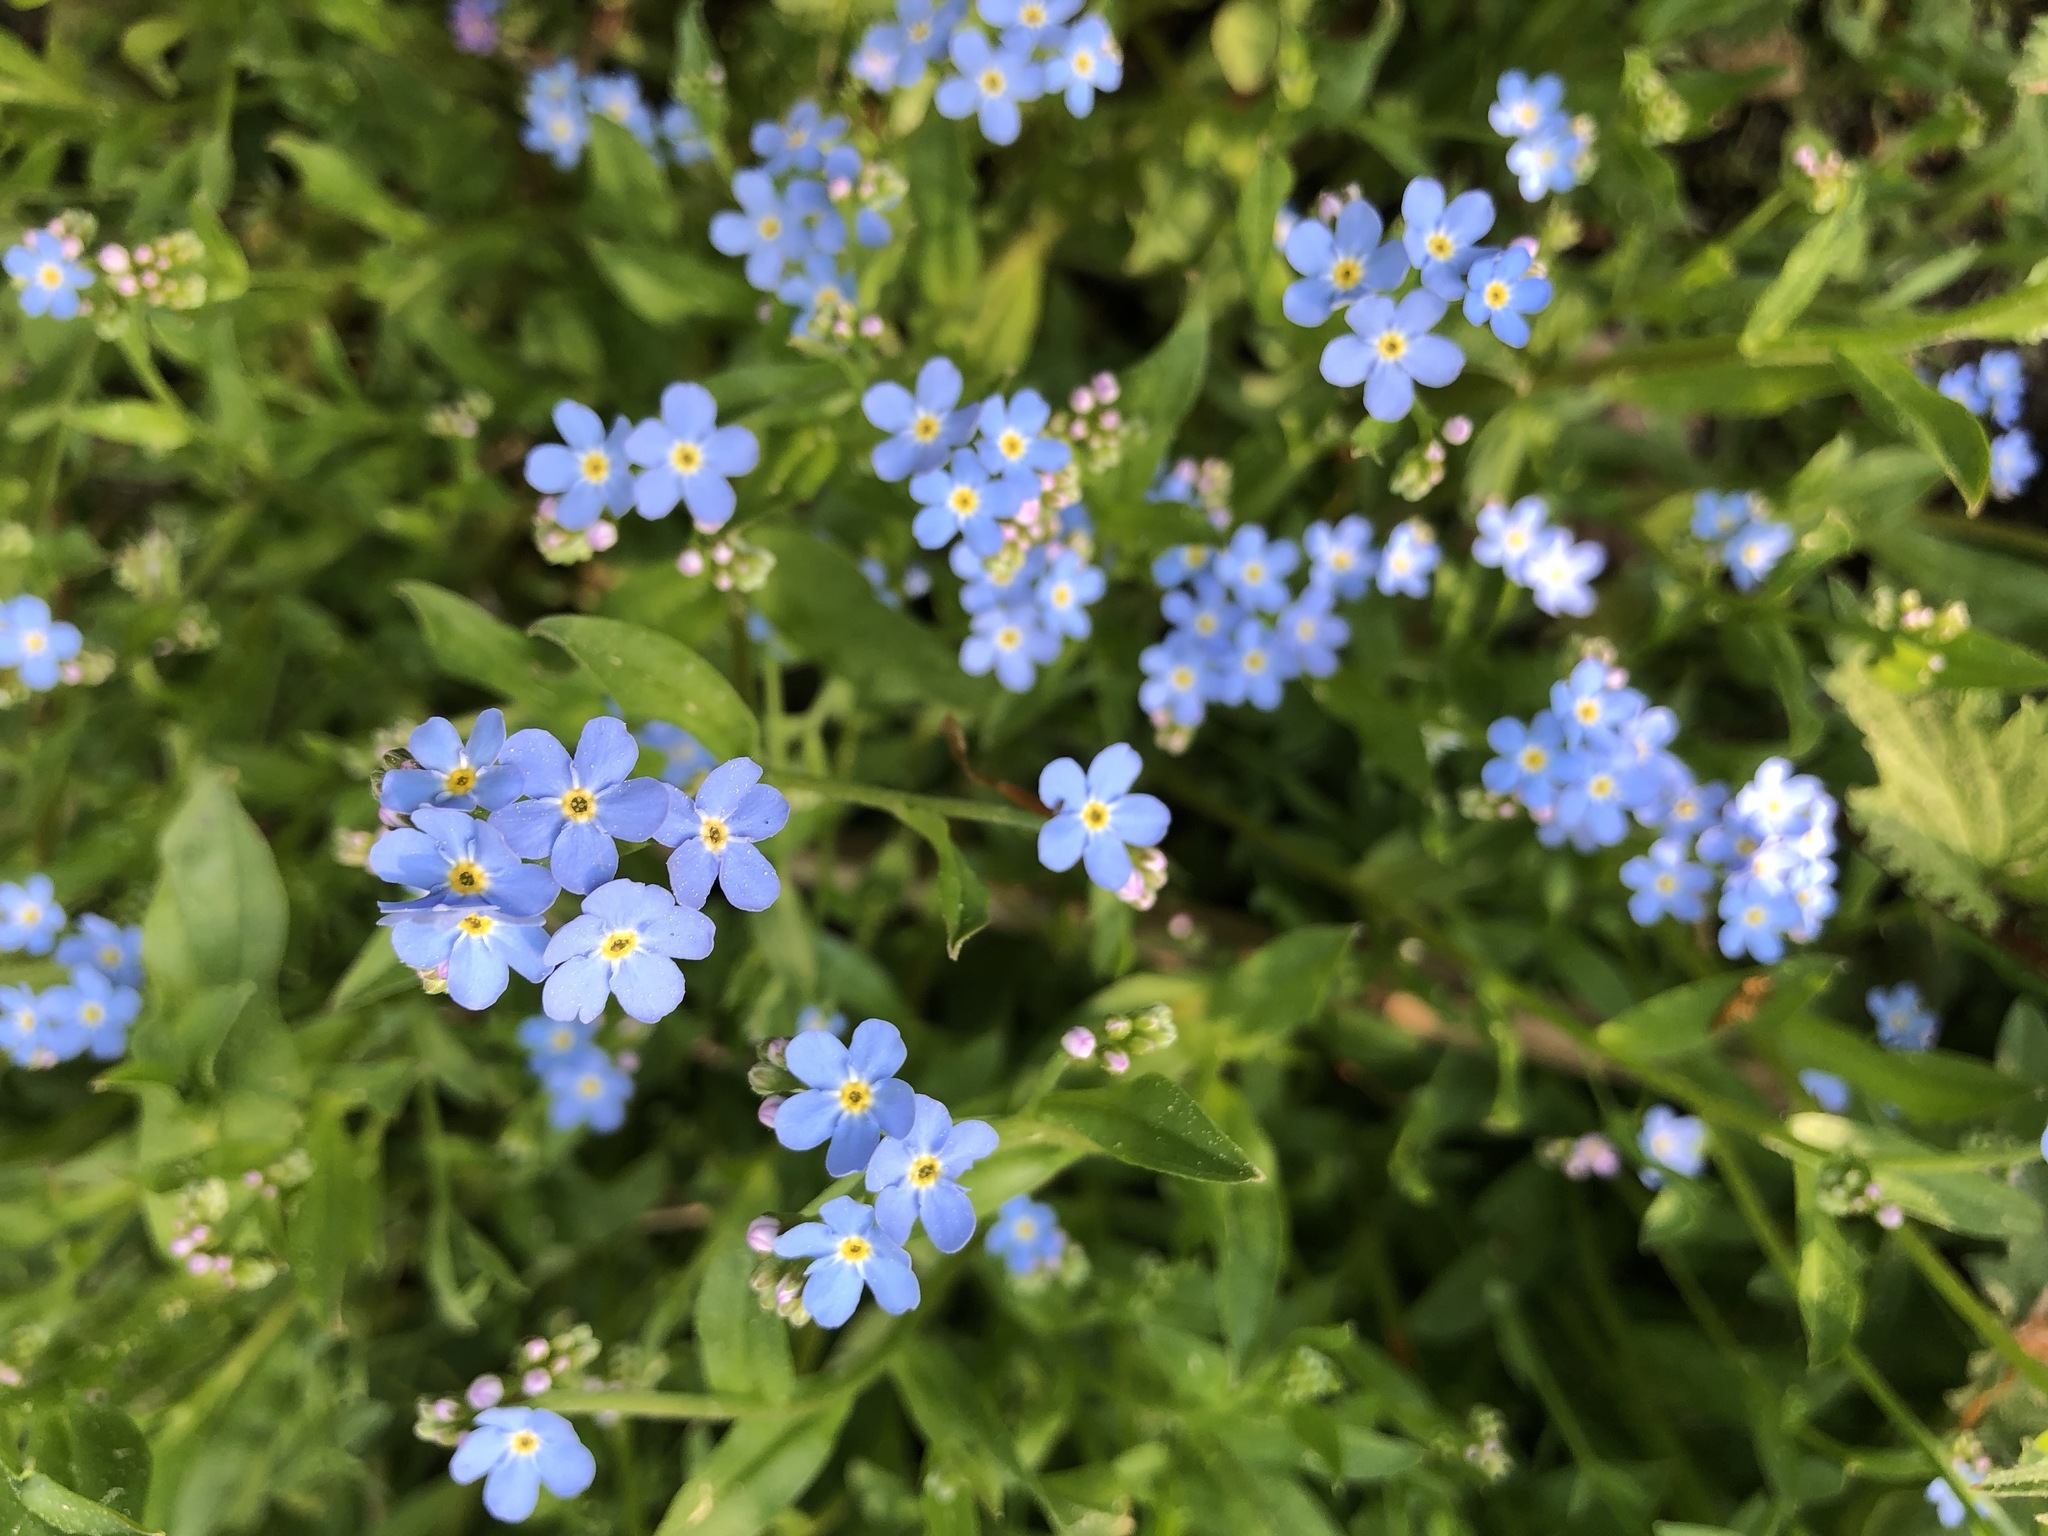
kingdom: Plantae
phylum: Tracheophyta
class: Magnoliopsida
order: Boraginales
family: Boraginaceae
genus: Myosotis
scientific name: Myosotis scorpioides
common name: Water forget-me-not
